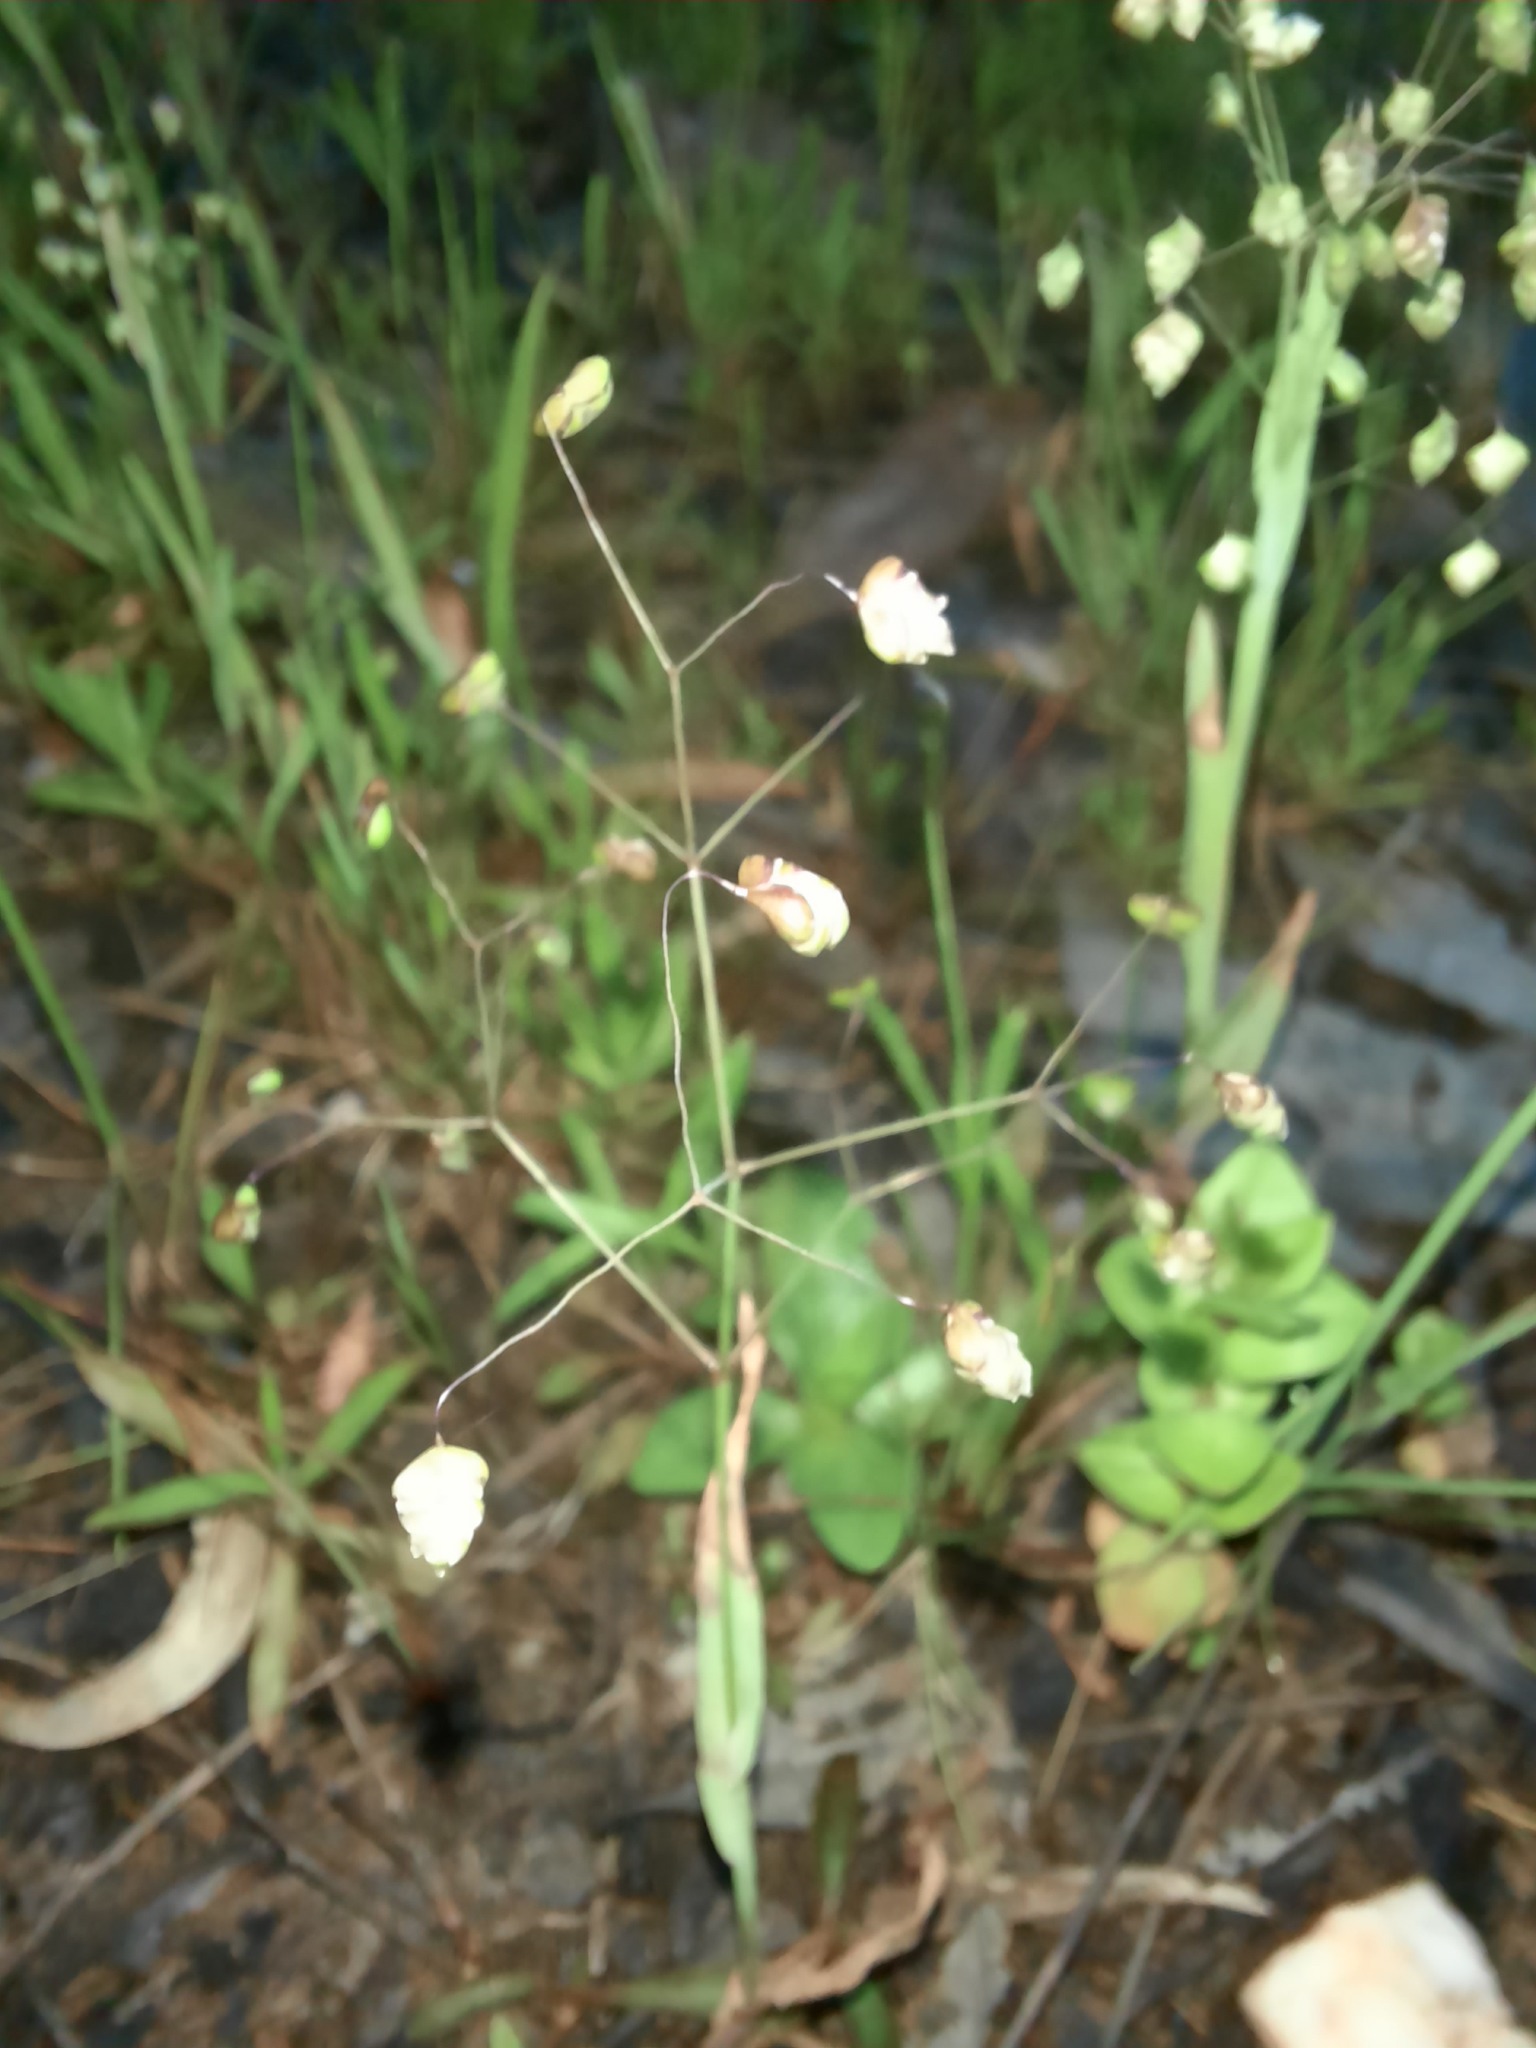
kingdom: Plantae
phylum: Tracheophyta
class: Liliopsida
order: Poales
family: Poaceae
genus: Briza
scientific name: Briza minor
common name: Lesser quaking-grass
